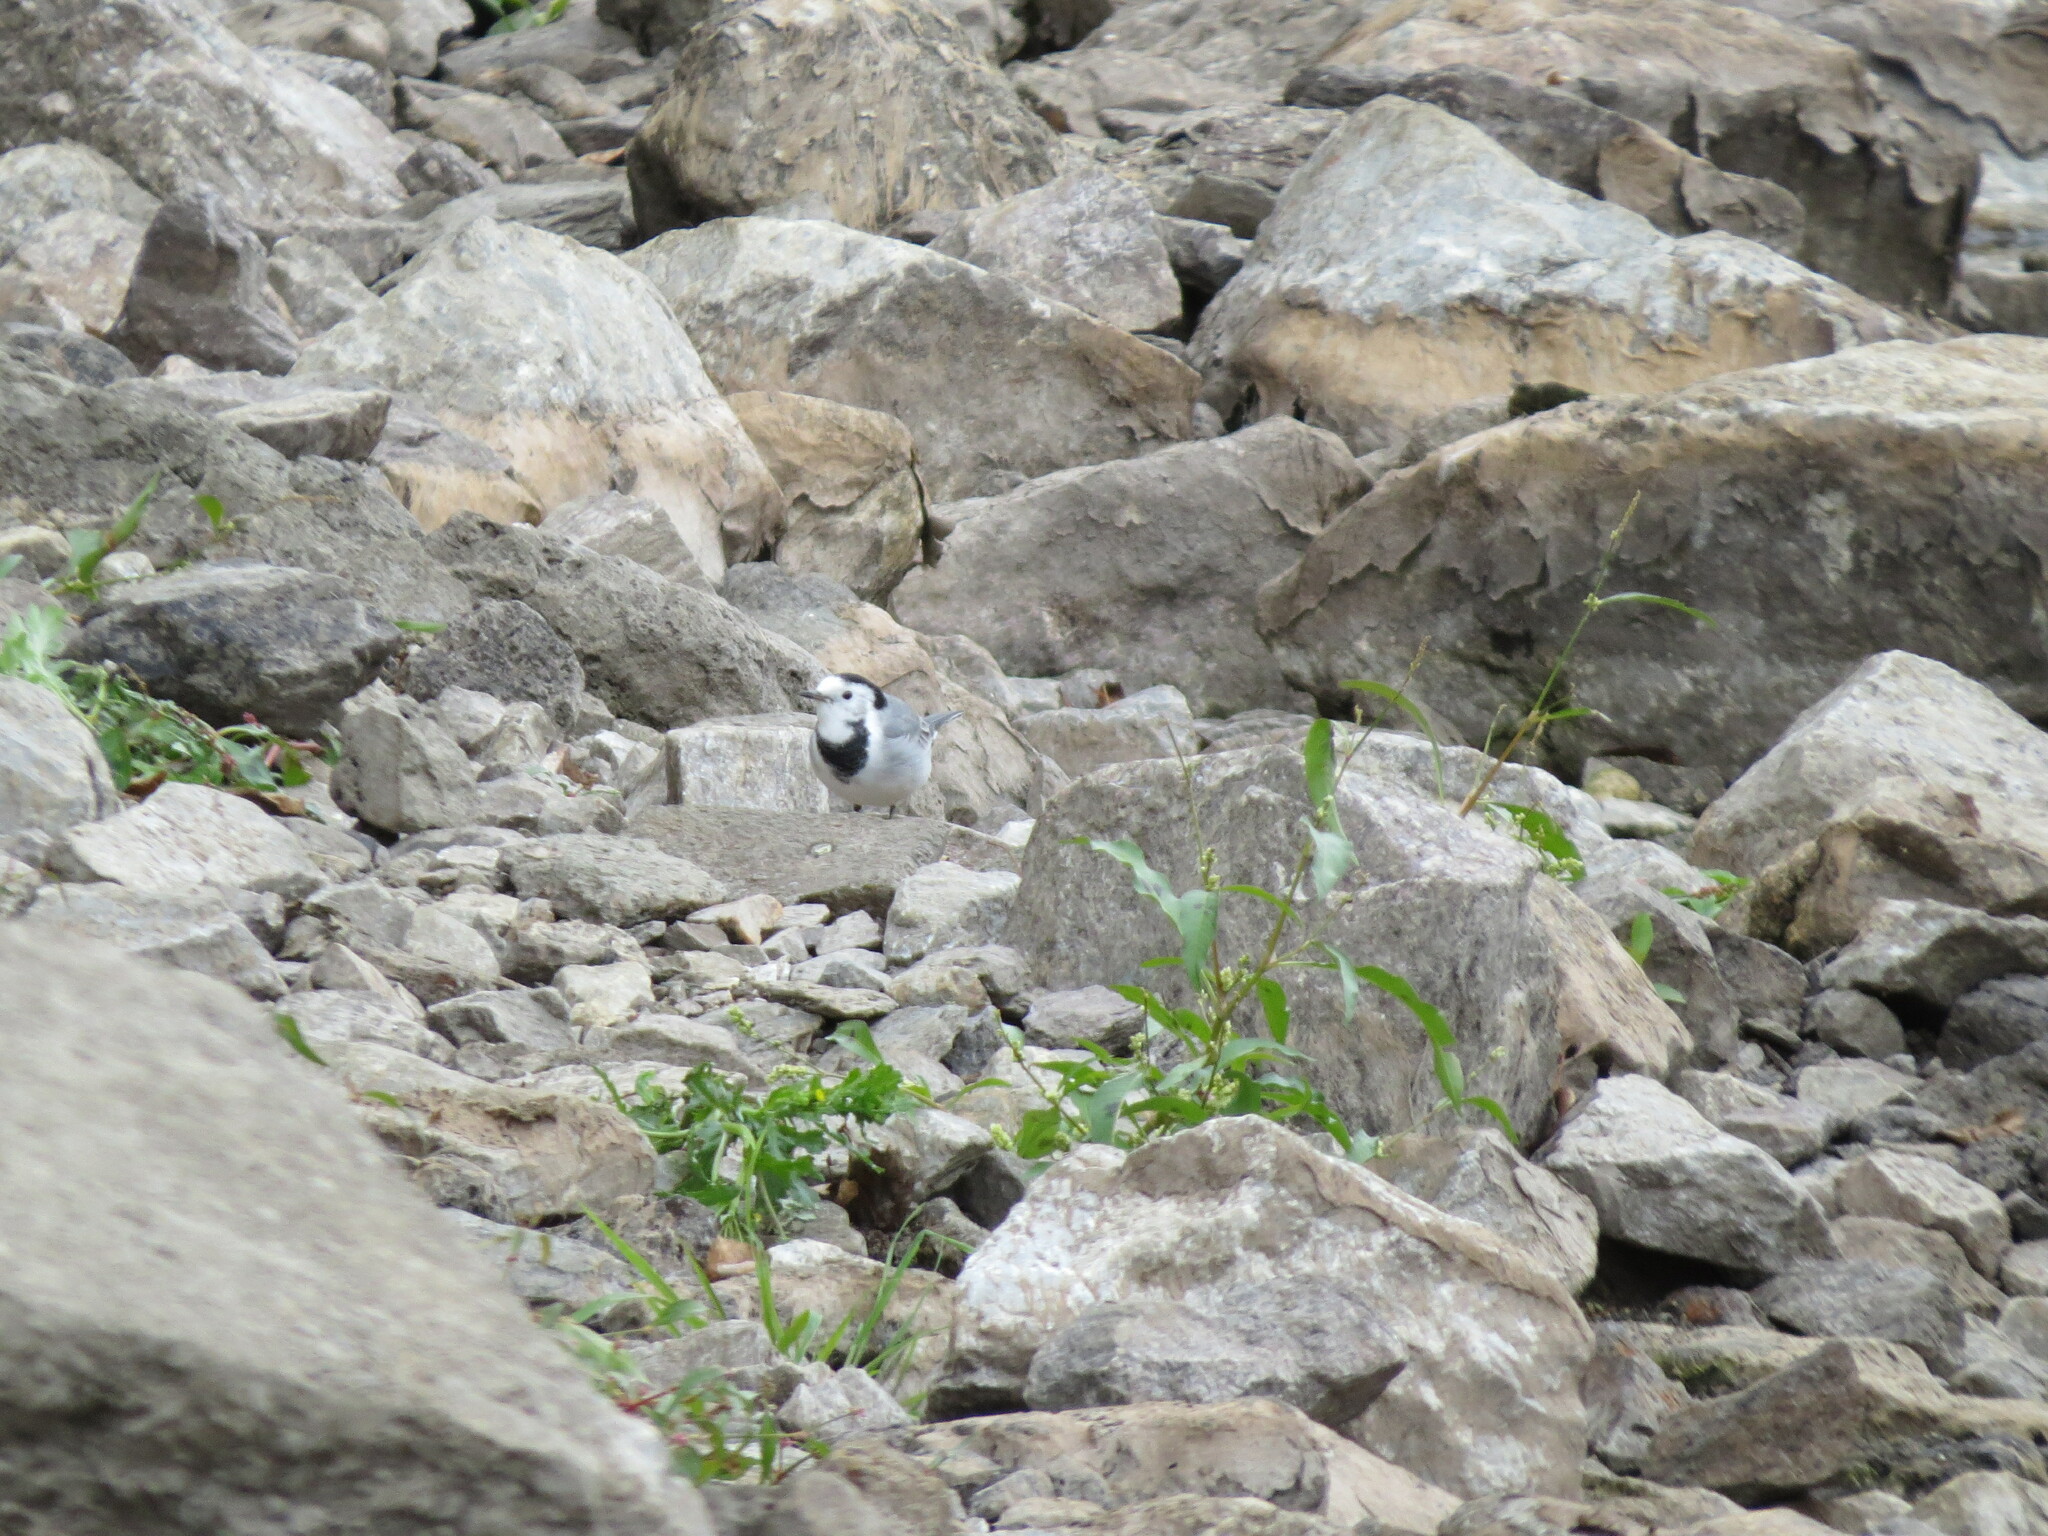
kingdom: Animalia
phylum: Chordata
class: Aves
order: Passeriformes
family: Motacillidae
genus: Motacilla
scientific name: Motacilla alba
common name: White wagtail
